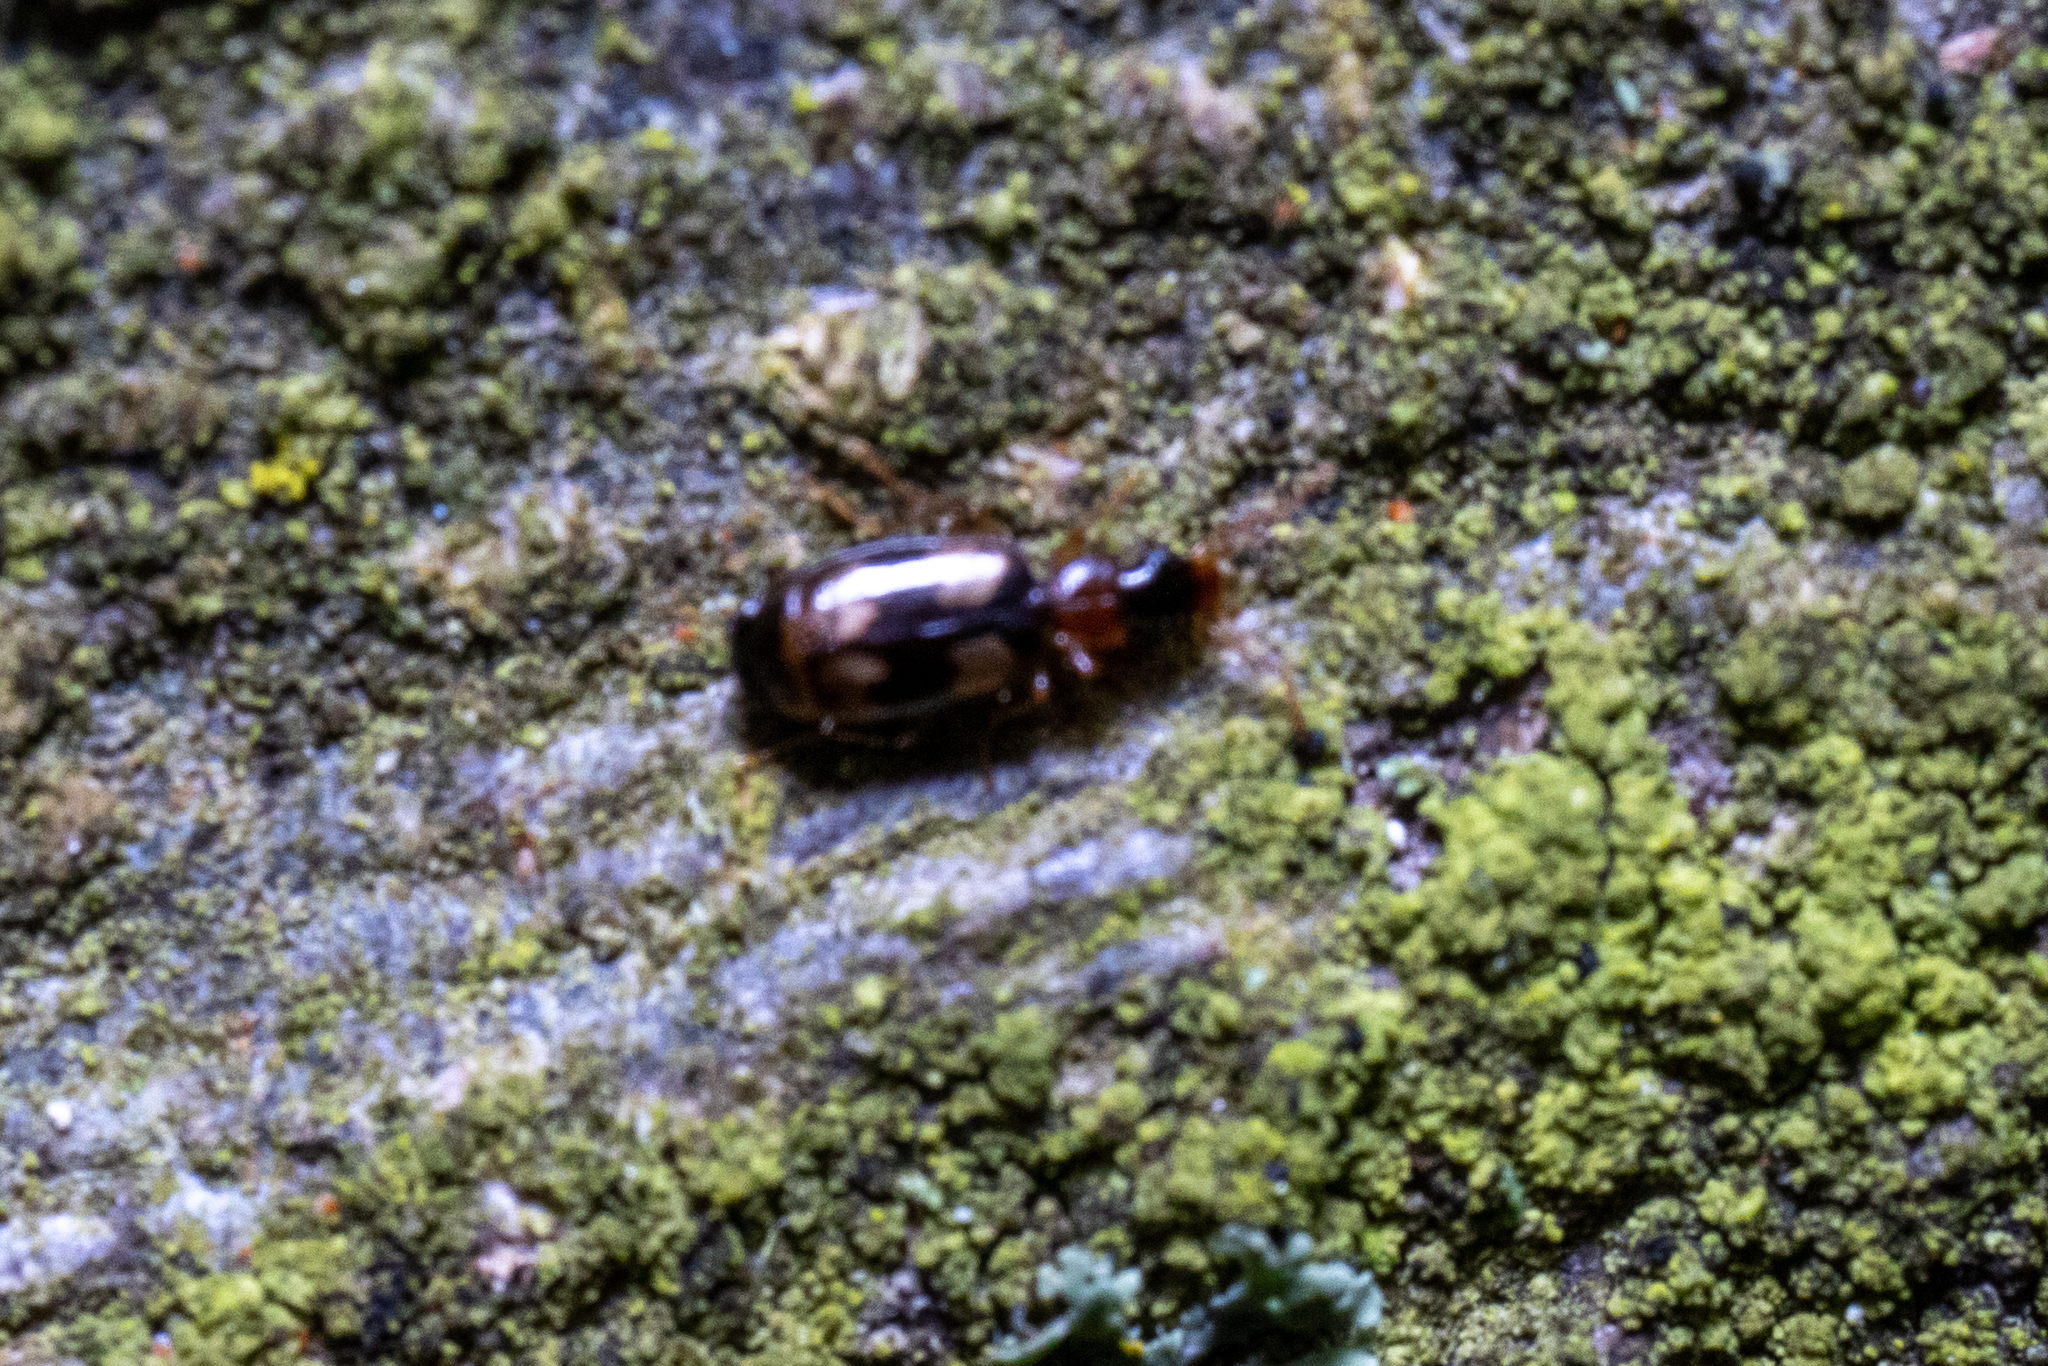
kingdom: Animalia
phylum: Arthropoda
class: Insecta
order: Coleoptera
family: Carabidae
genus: Calodromius
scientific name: Calodromius bifasciatus
